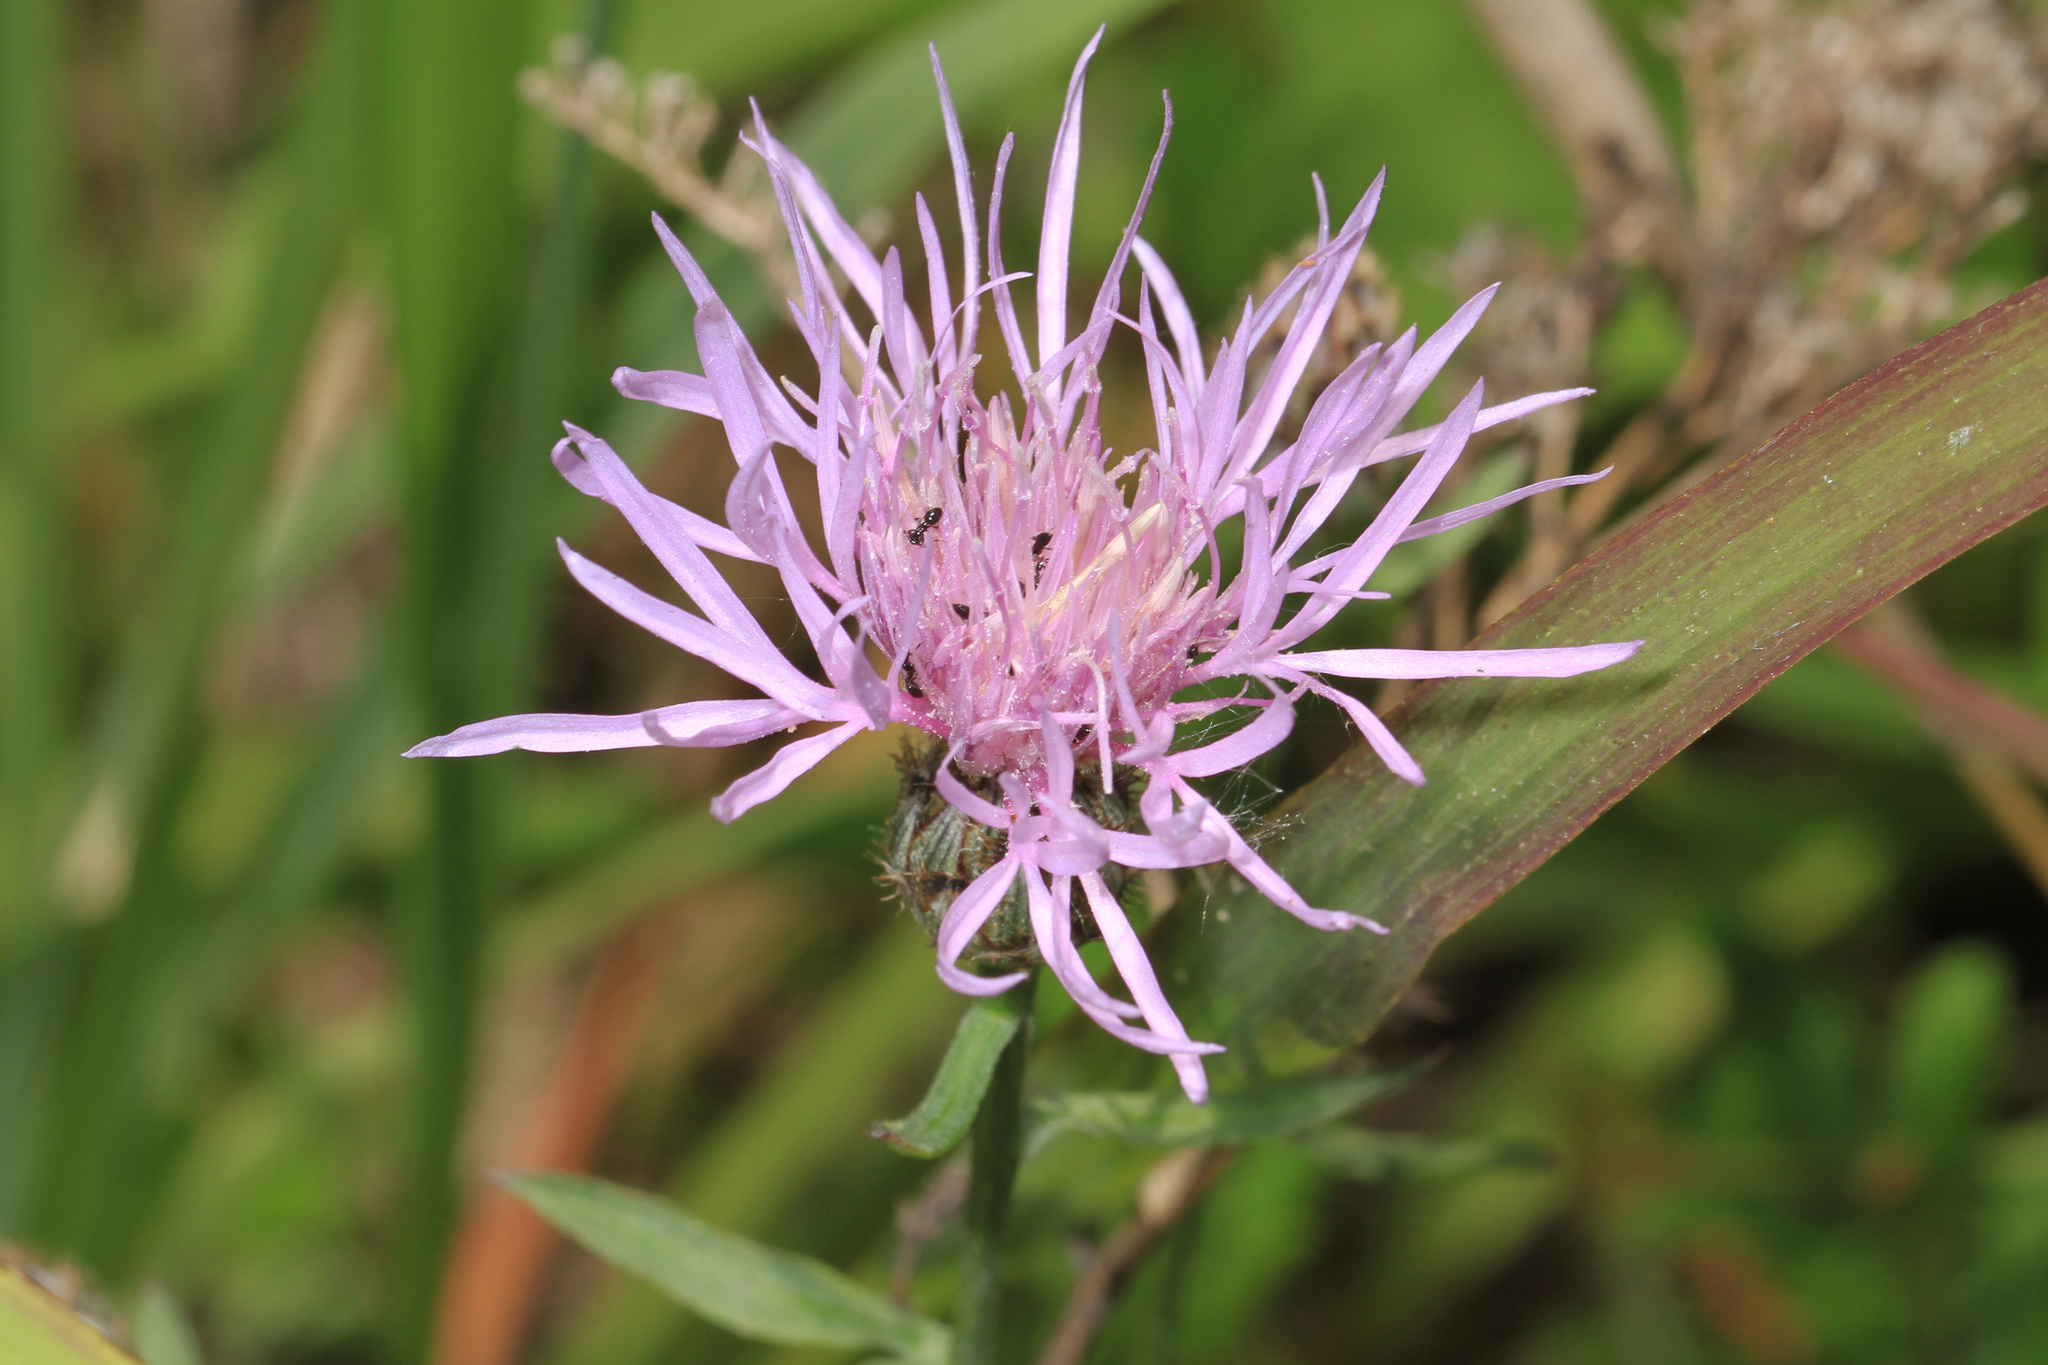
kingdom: Plantae
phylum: Tracheophyta
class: Magnoliopsida
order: Asterales
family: Asteraceae
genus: Centaurea
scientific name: Centaurea nigrescens
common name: Tyrol knapweed
